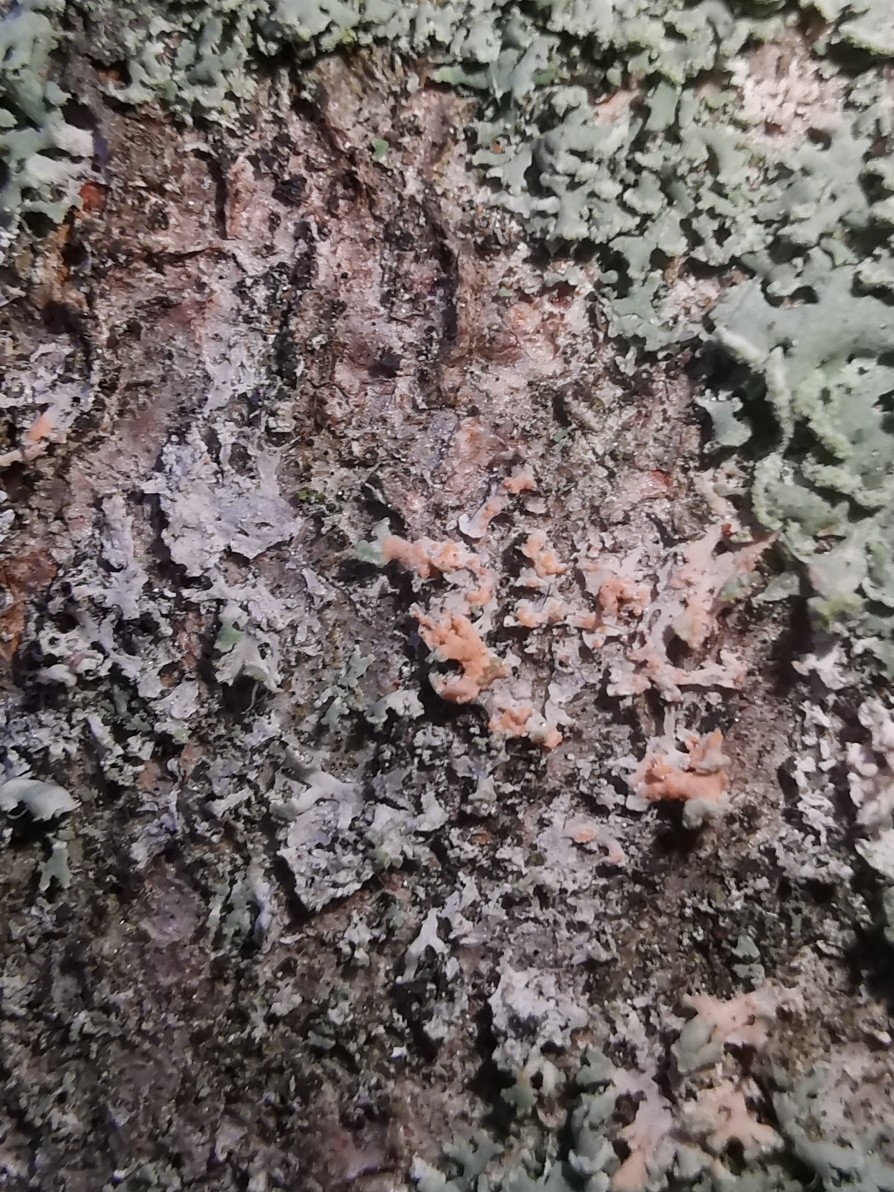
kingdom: Fungi
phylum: Basidiomycota
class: Agaricomycetes
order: Corticiales
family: Corticiaceae
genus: Erythricium
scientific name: Erythricium aurantiacum
